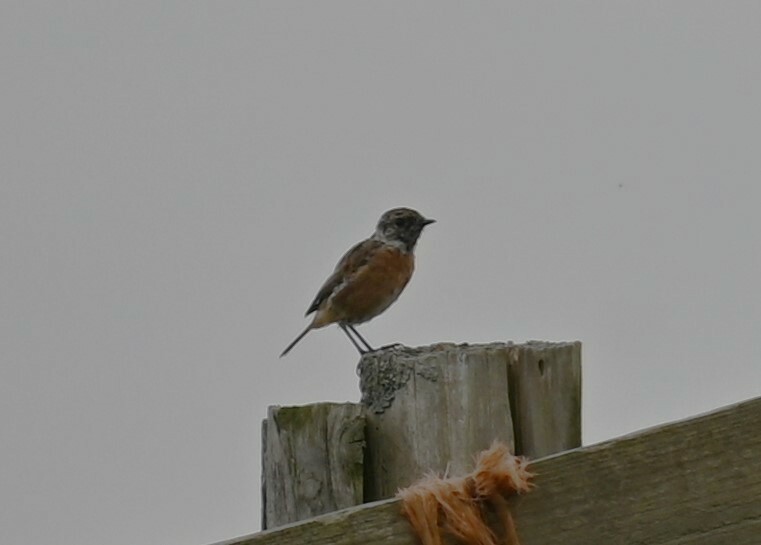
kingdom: Animalia
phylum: Chordata
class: Aves
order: Passeriformes
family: Muscicapidae
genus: Saxicola
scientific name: Saxicola rubicola
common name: European stonechat
